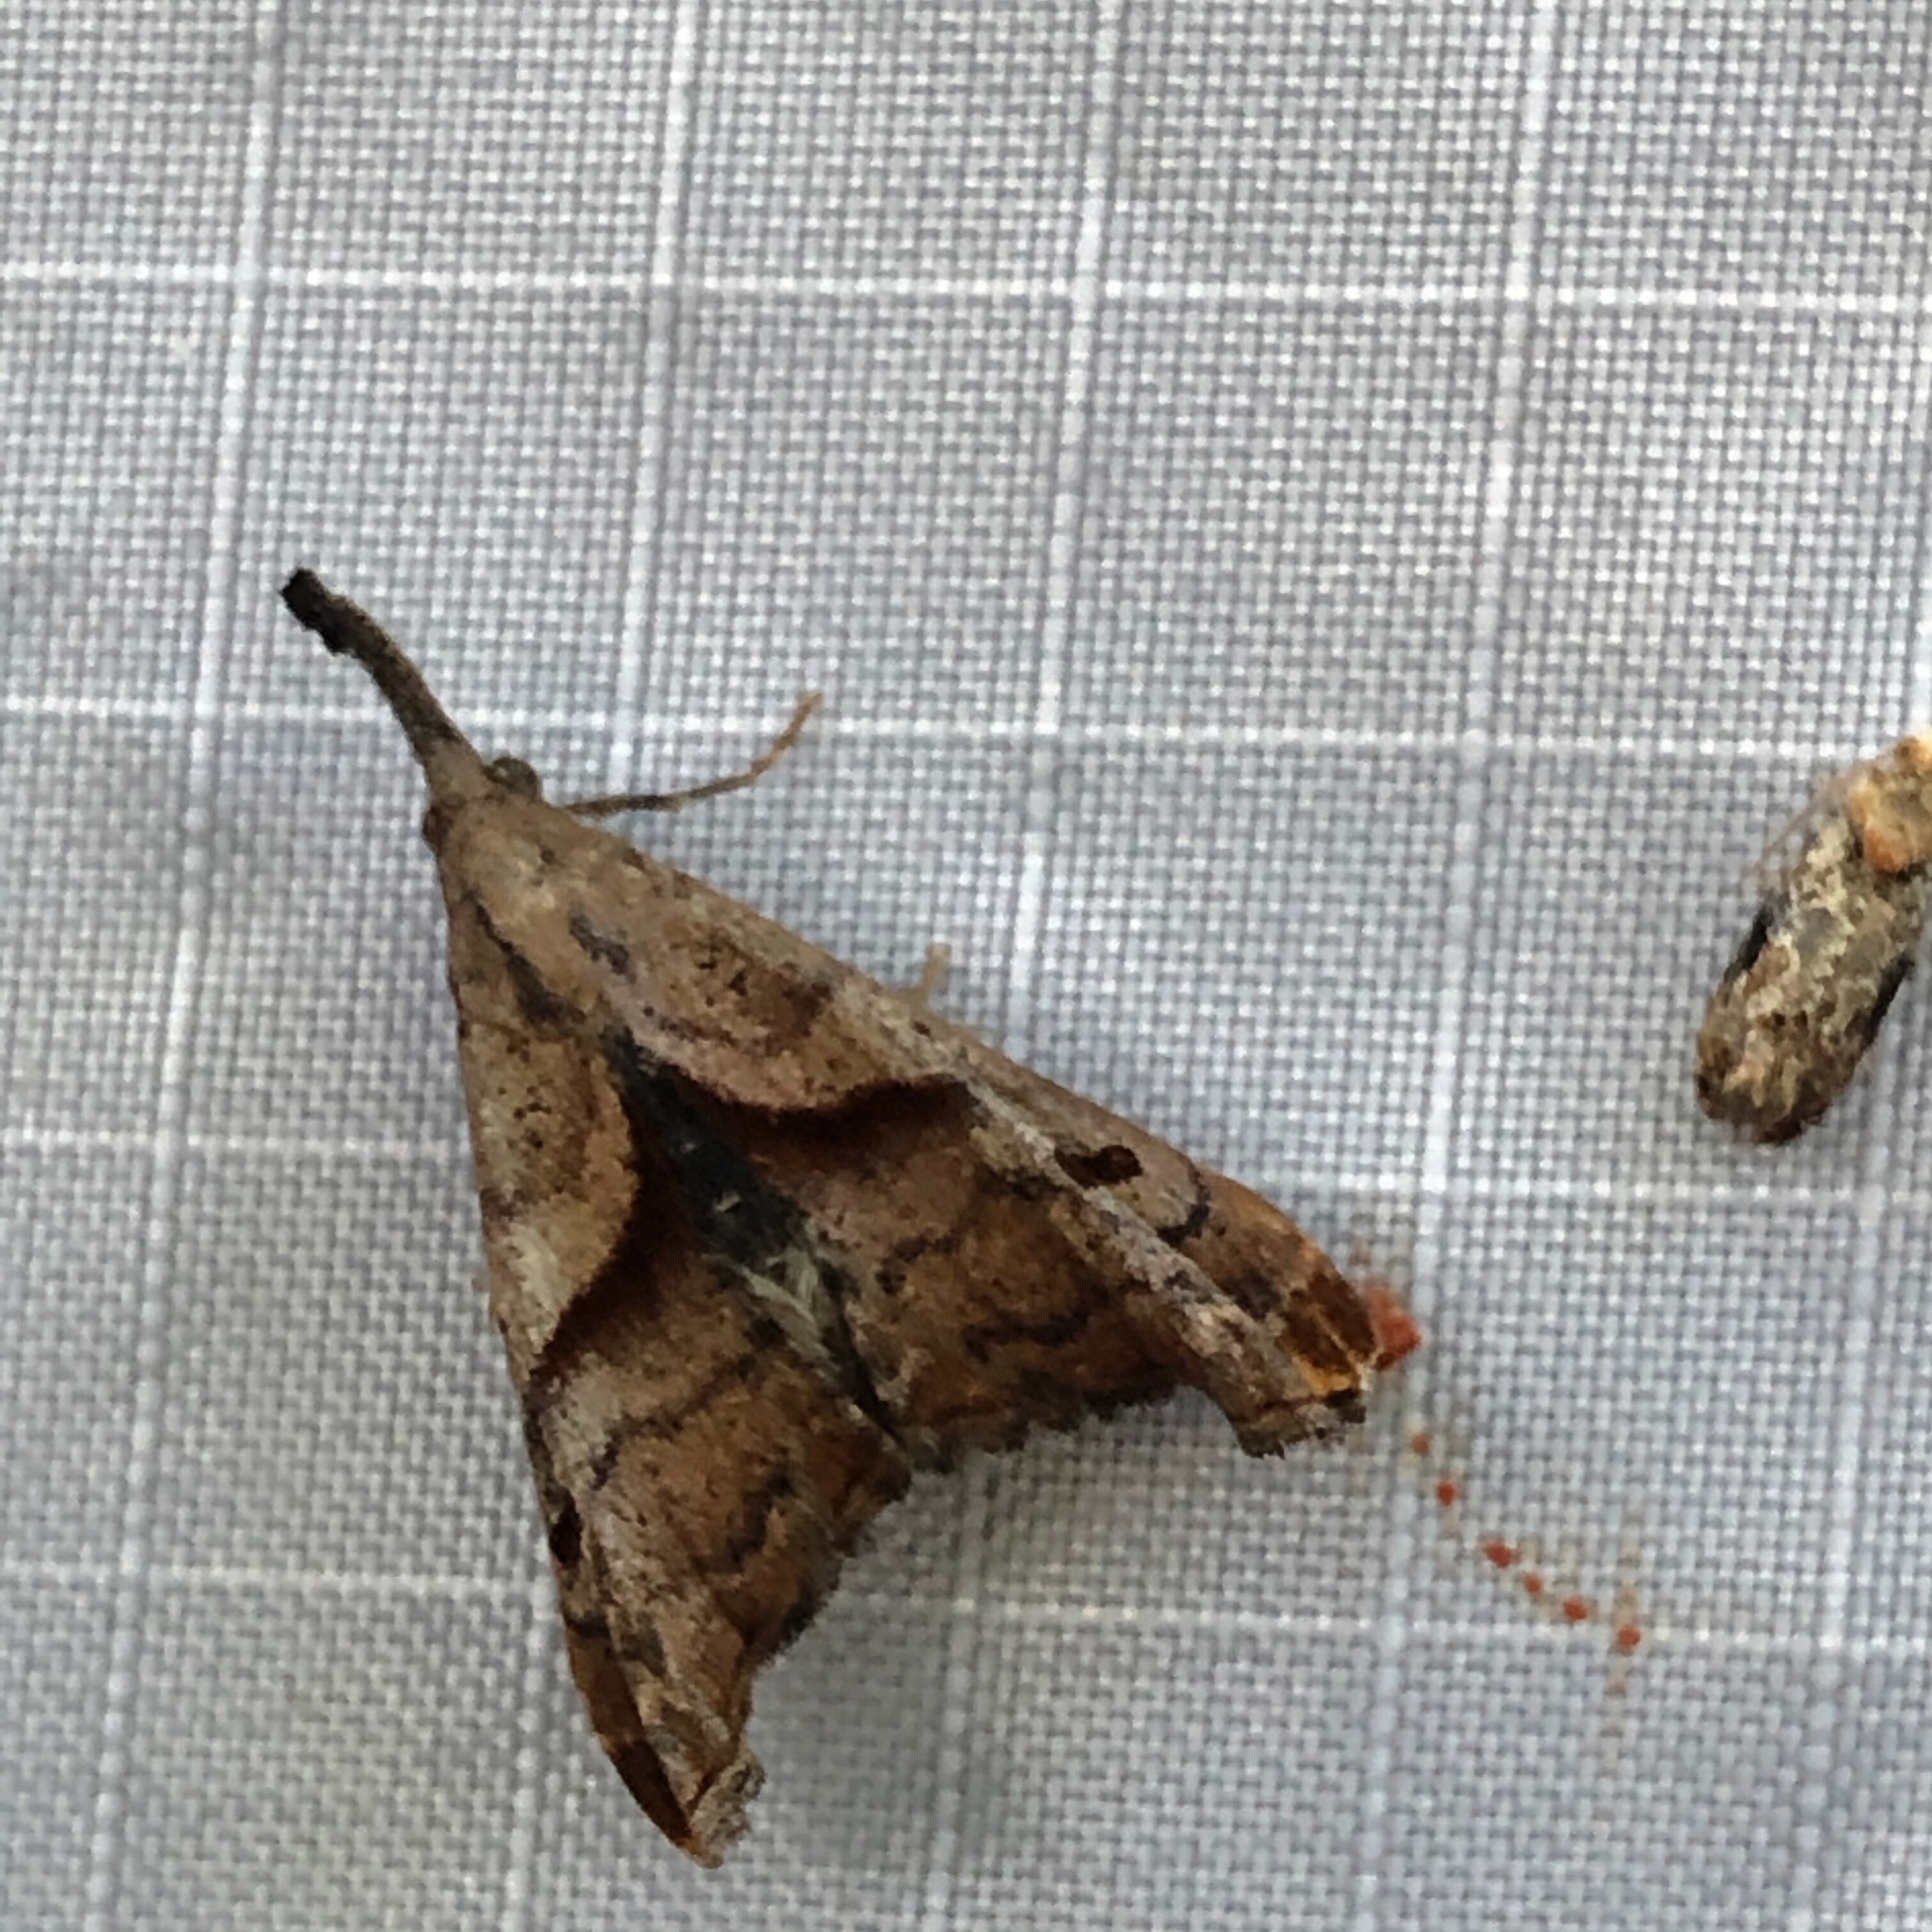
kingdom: Animalia
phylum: Arthropoda
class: Insecta
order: Lepidoptera
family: Erebidae
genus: Palthis
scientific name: Palthis angulalis
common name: Dark-spotted palthis moth
